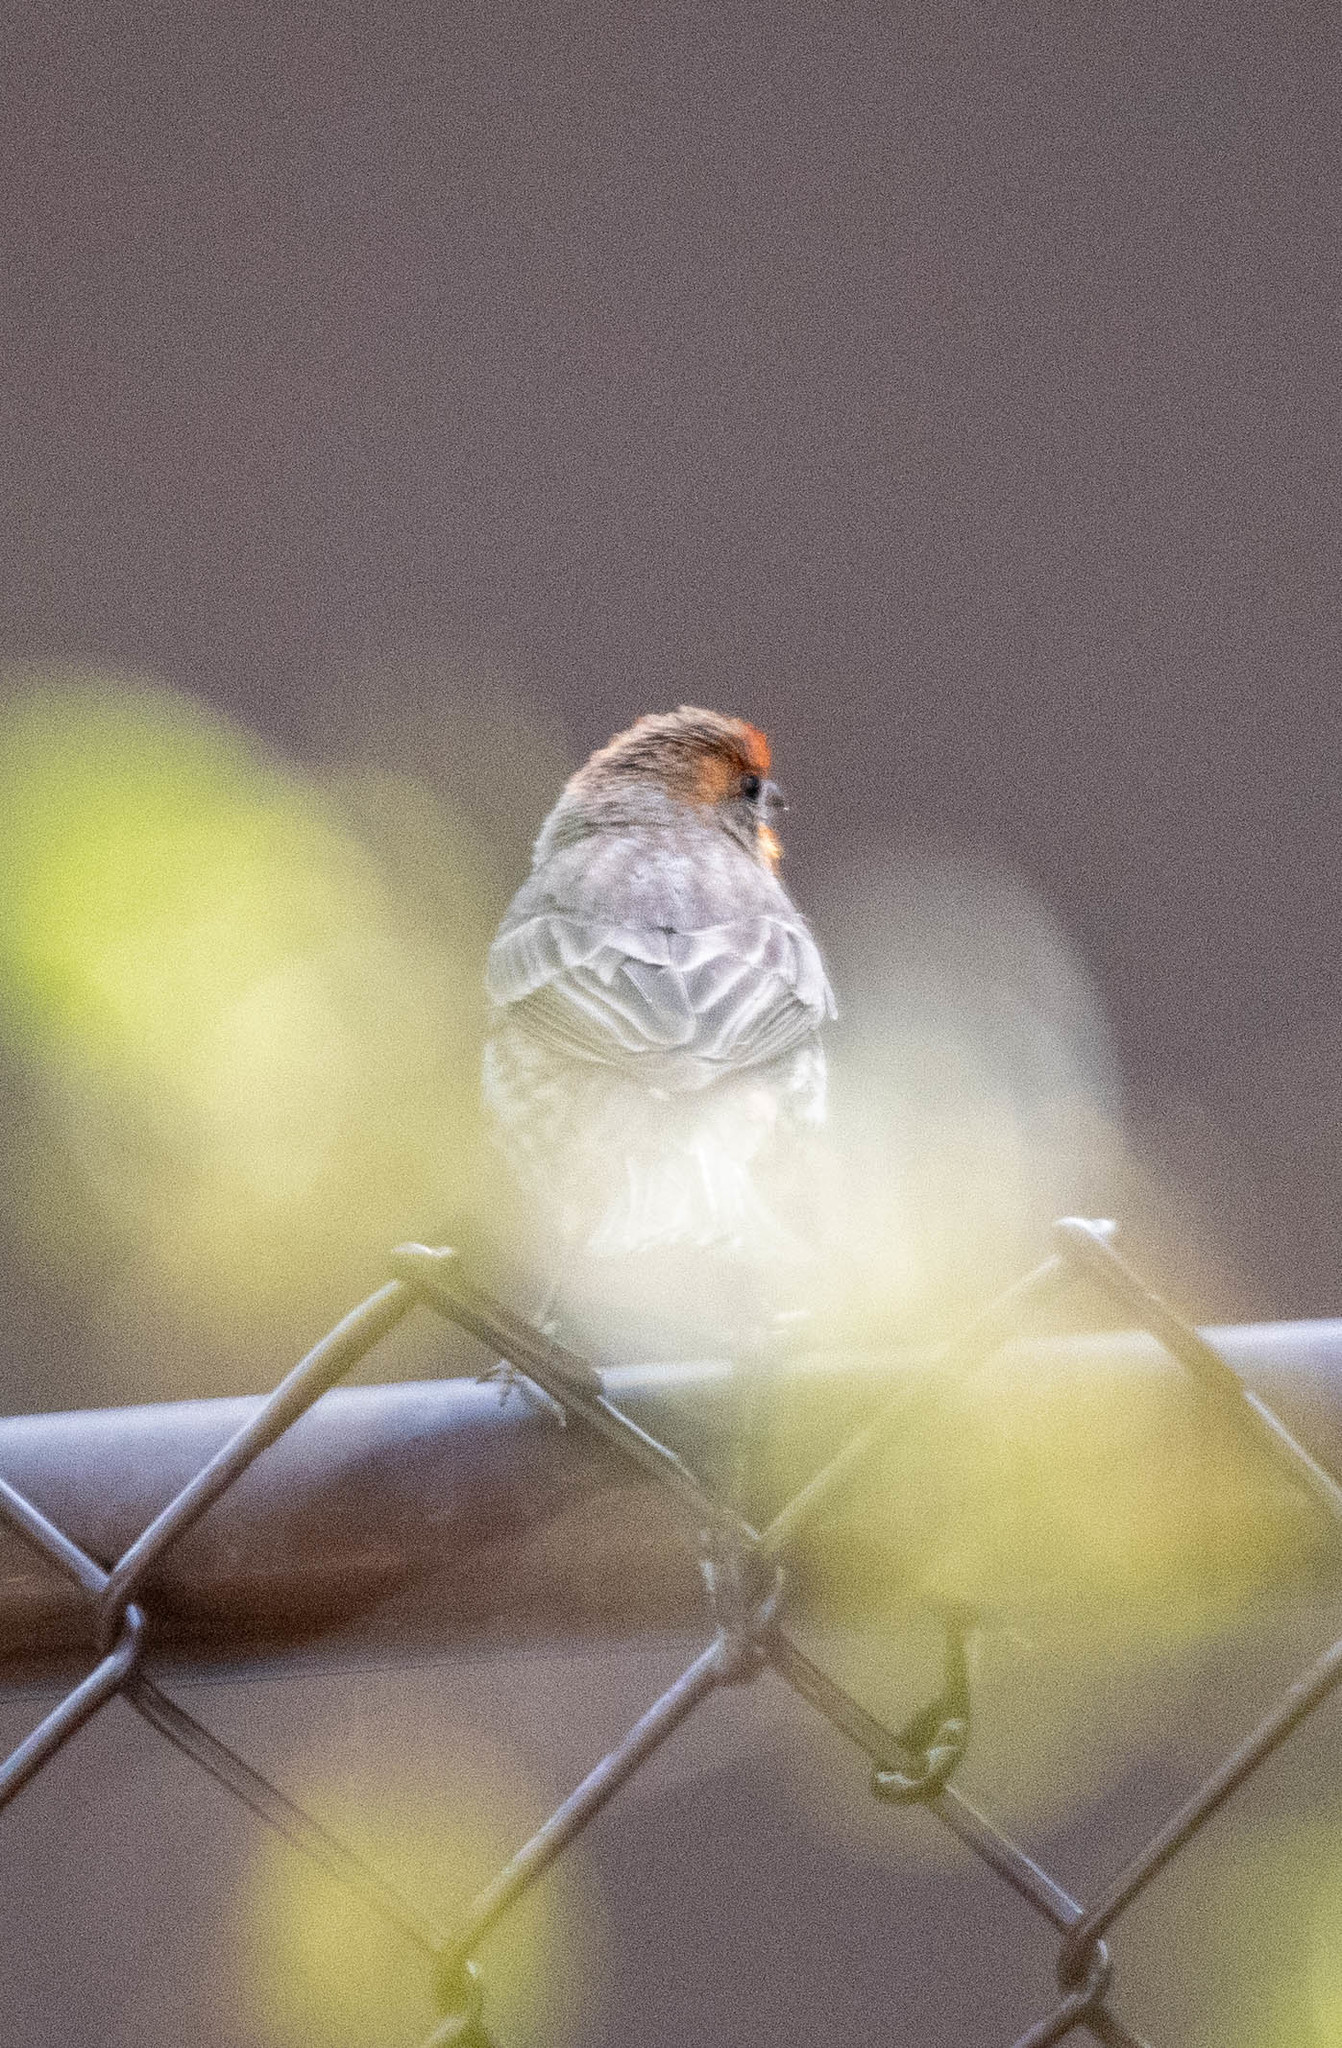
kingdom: Animalia
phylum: Chordata
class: Aves
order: Passeriformes
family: Fringillidae
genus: Haemorhous
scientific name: Haemorhous mexicanus
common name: House finch
